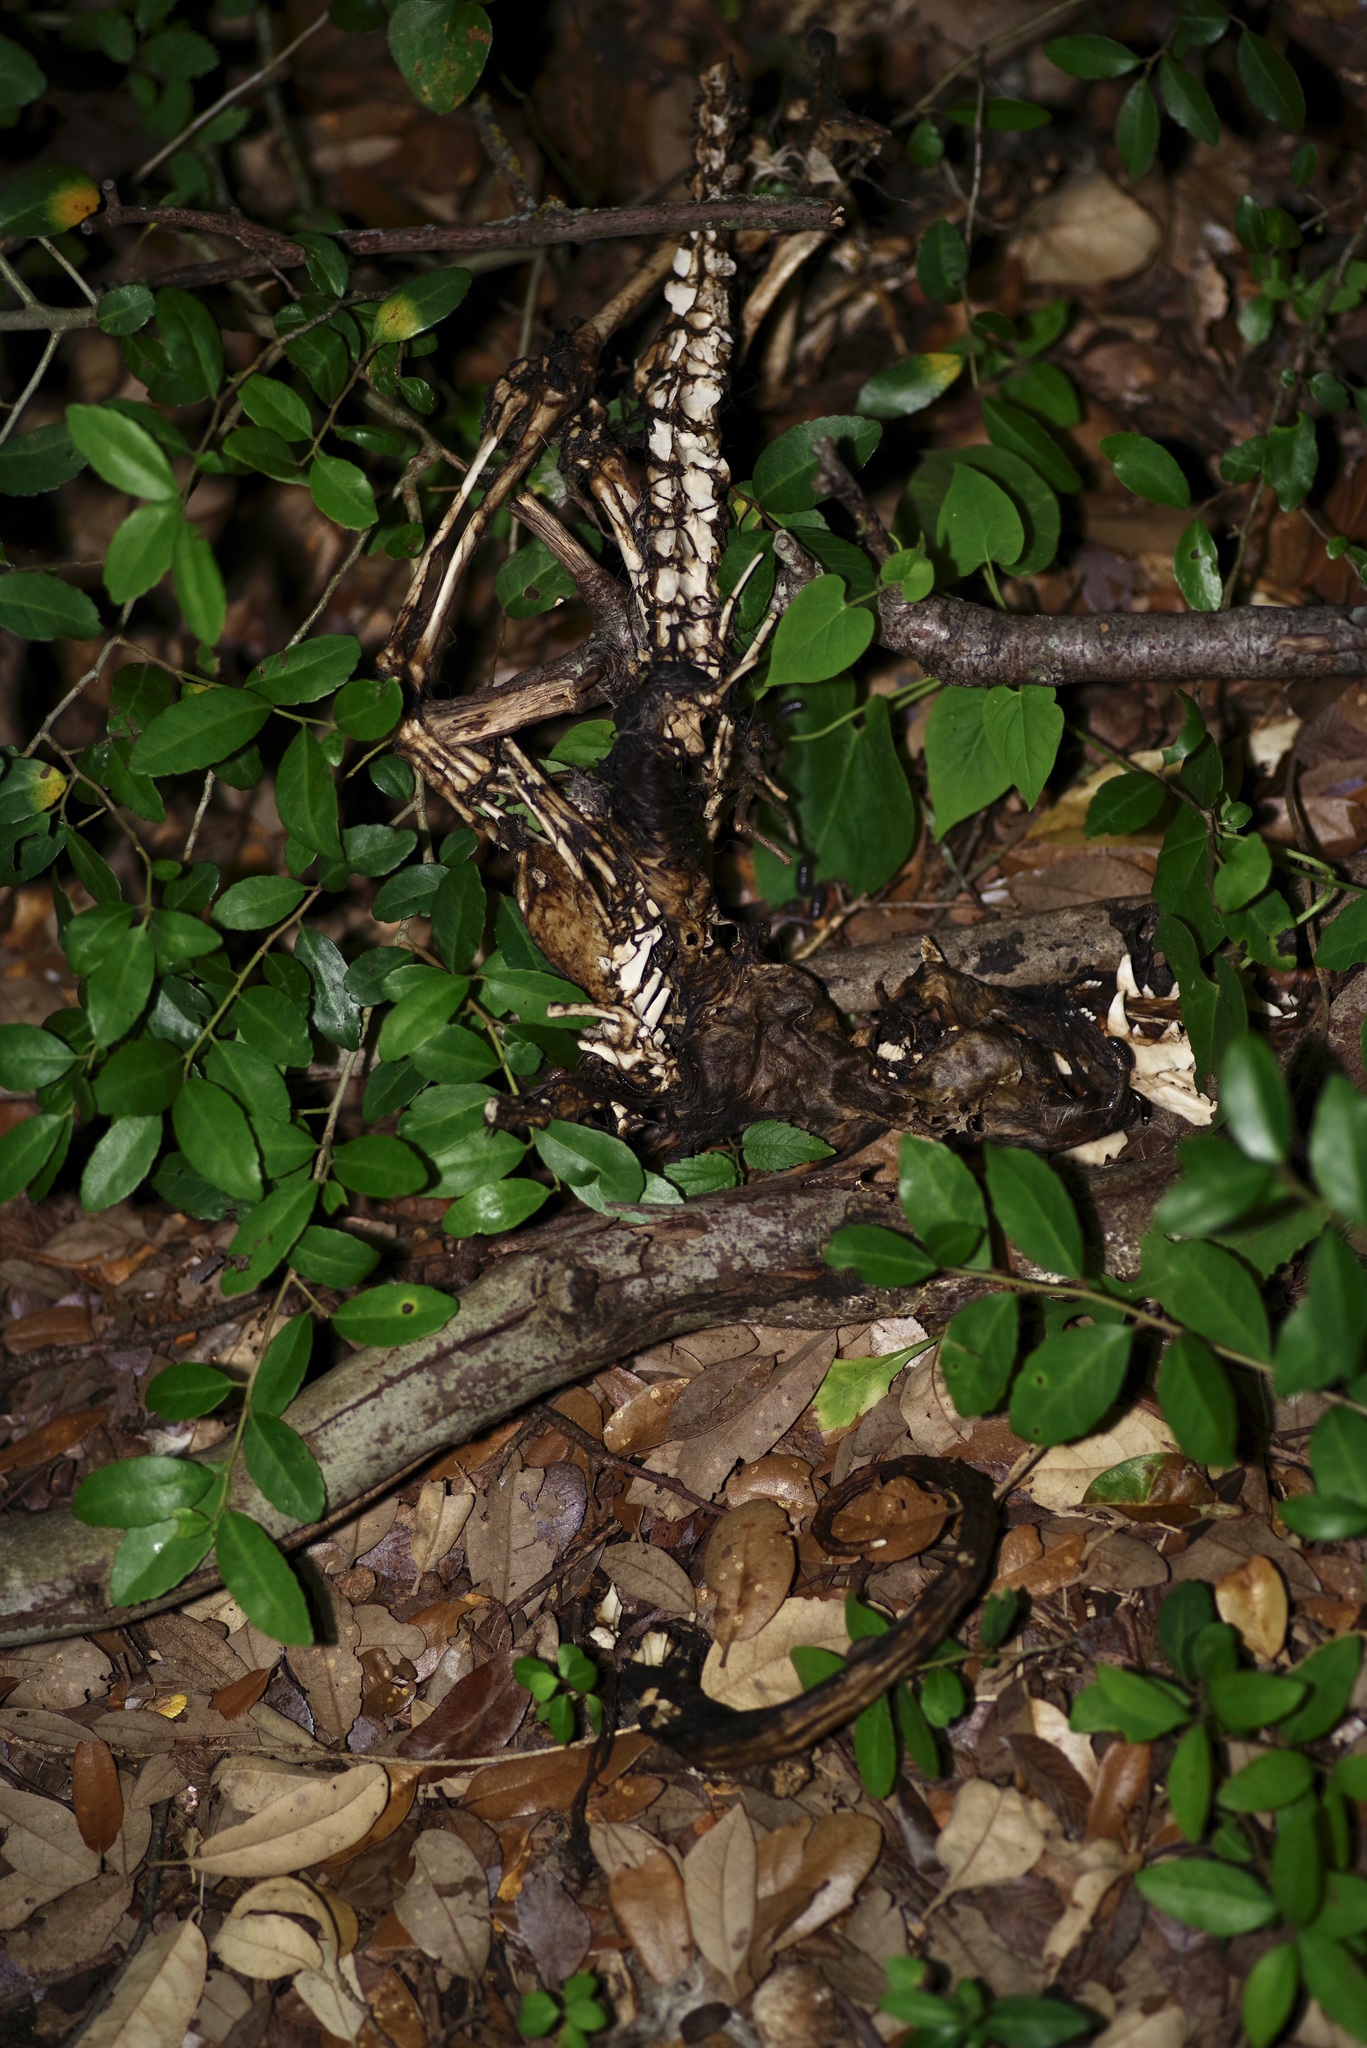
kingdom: Animalia
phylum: Chordata
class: Mammalia
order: Didelphimorphia
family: Didelphidae
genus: Didelphis
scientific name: Didelphis virginiana
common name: Virginia opossum
